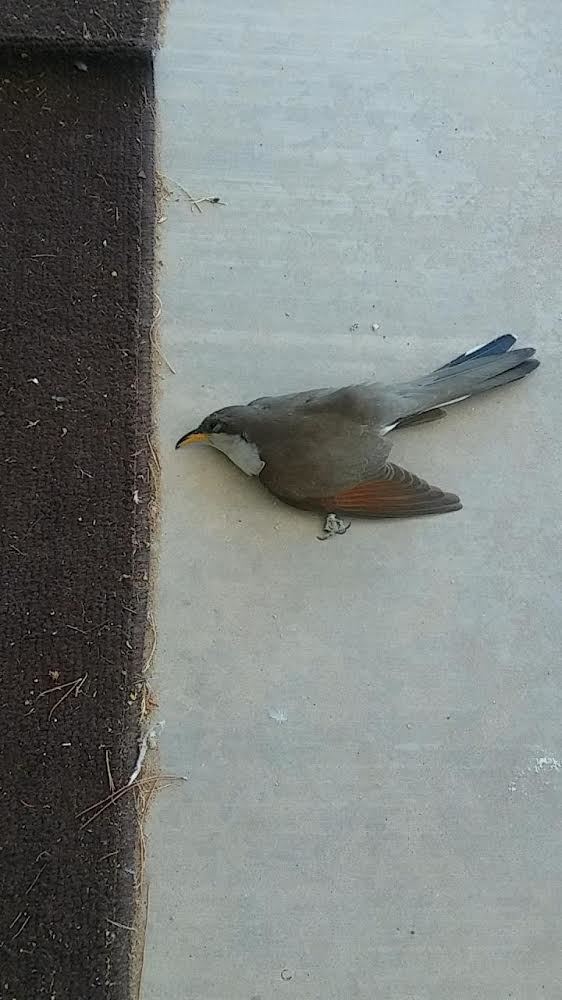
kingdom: Animalia
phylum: Chordata
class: Aves
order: Cuculiformes
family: Cuculidae
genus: Coccyzus
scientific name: Coccyzus americanus
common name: Yellow-billed cuckoo
